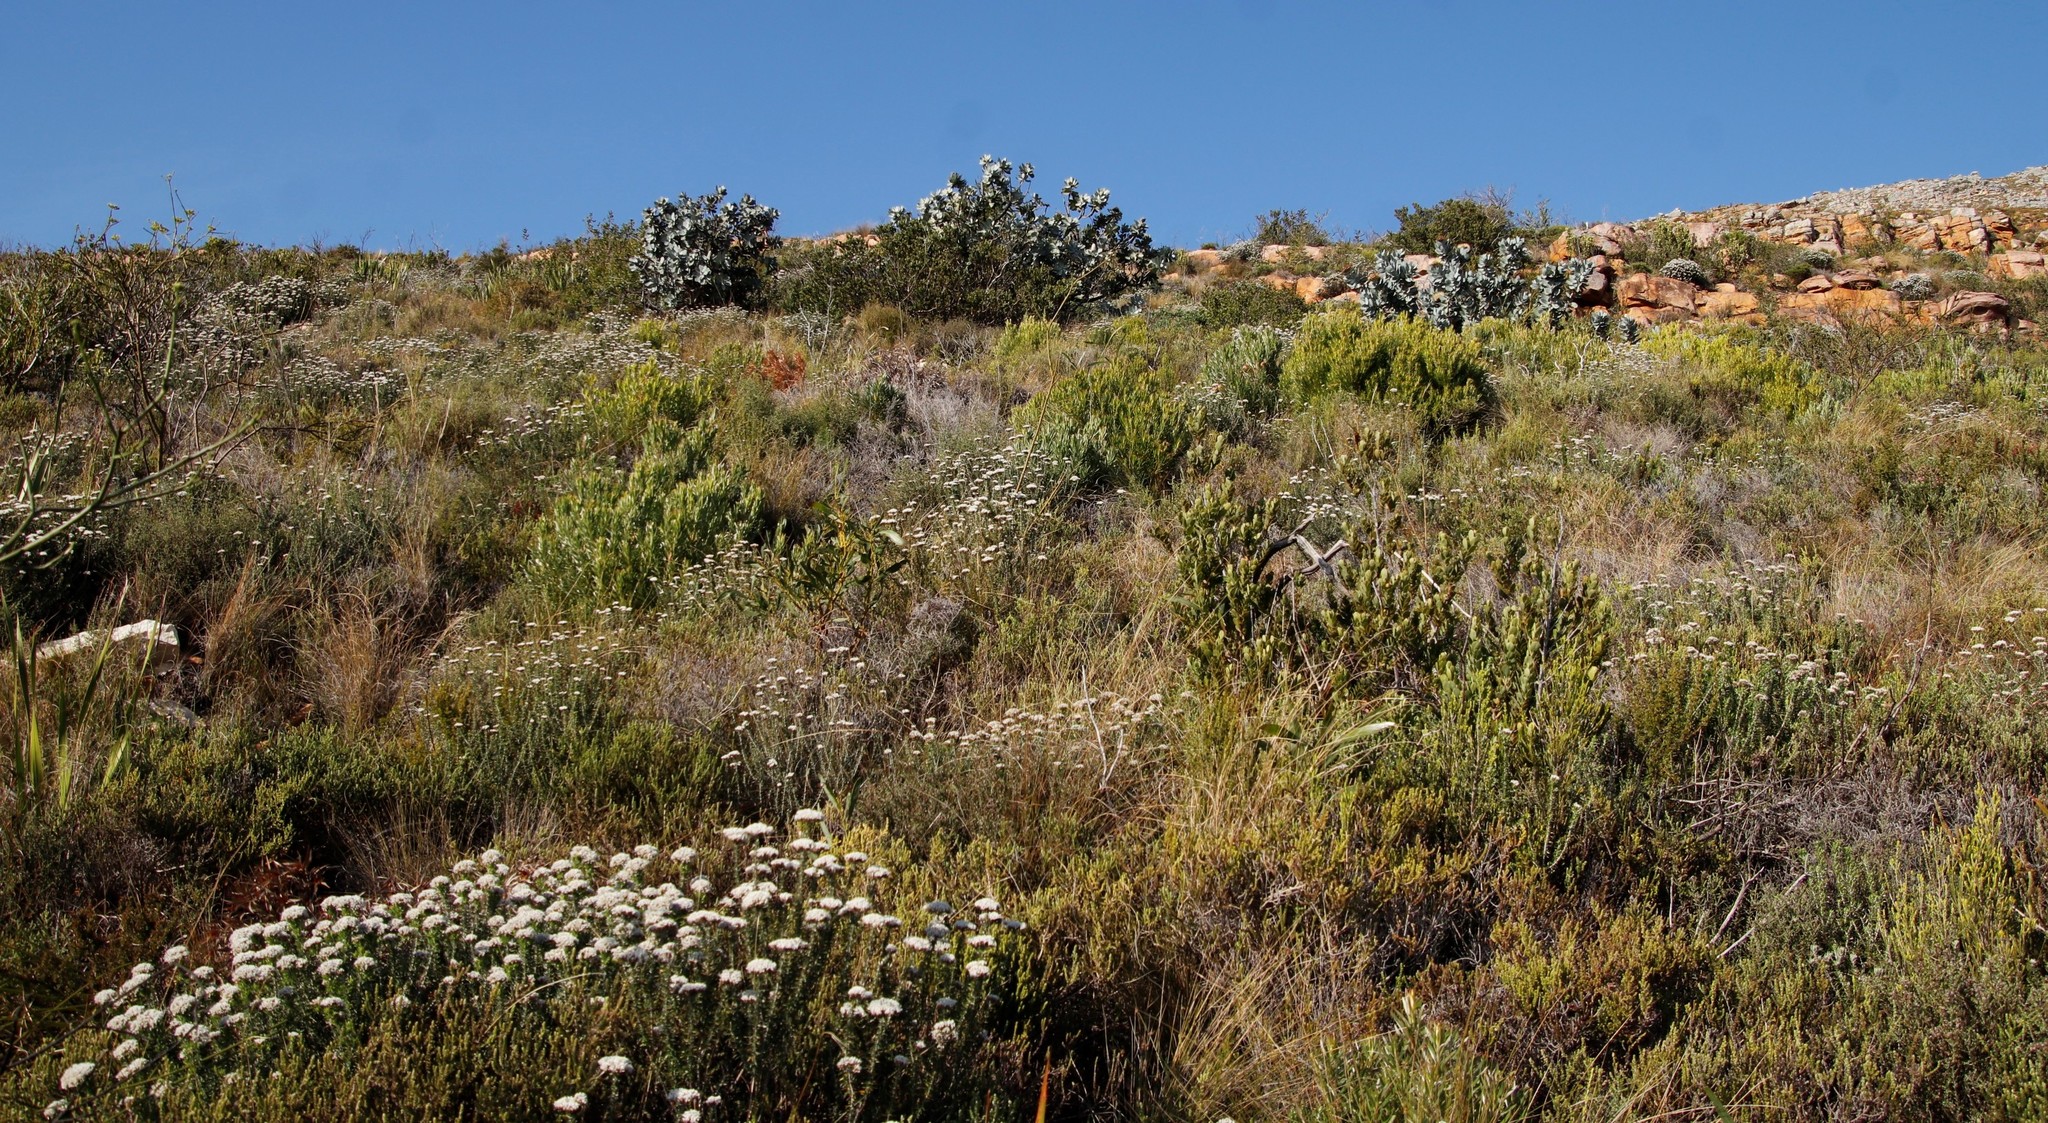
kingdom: Plantae
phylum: Tracheophyta
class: Magnoliopsida
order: Proteales
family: Proteaceae
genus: Protea
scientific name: Protea nitida
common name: Tree protea
